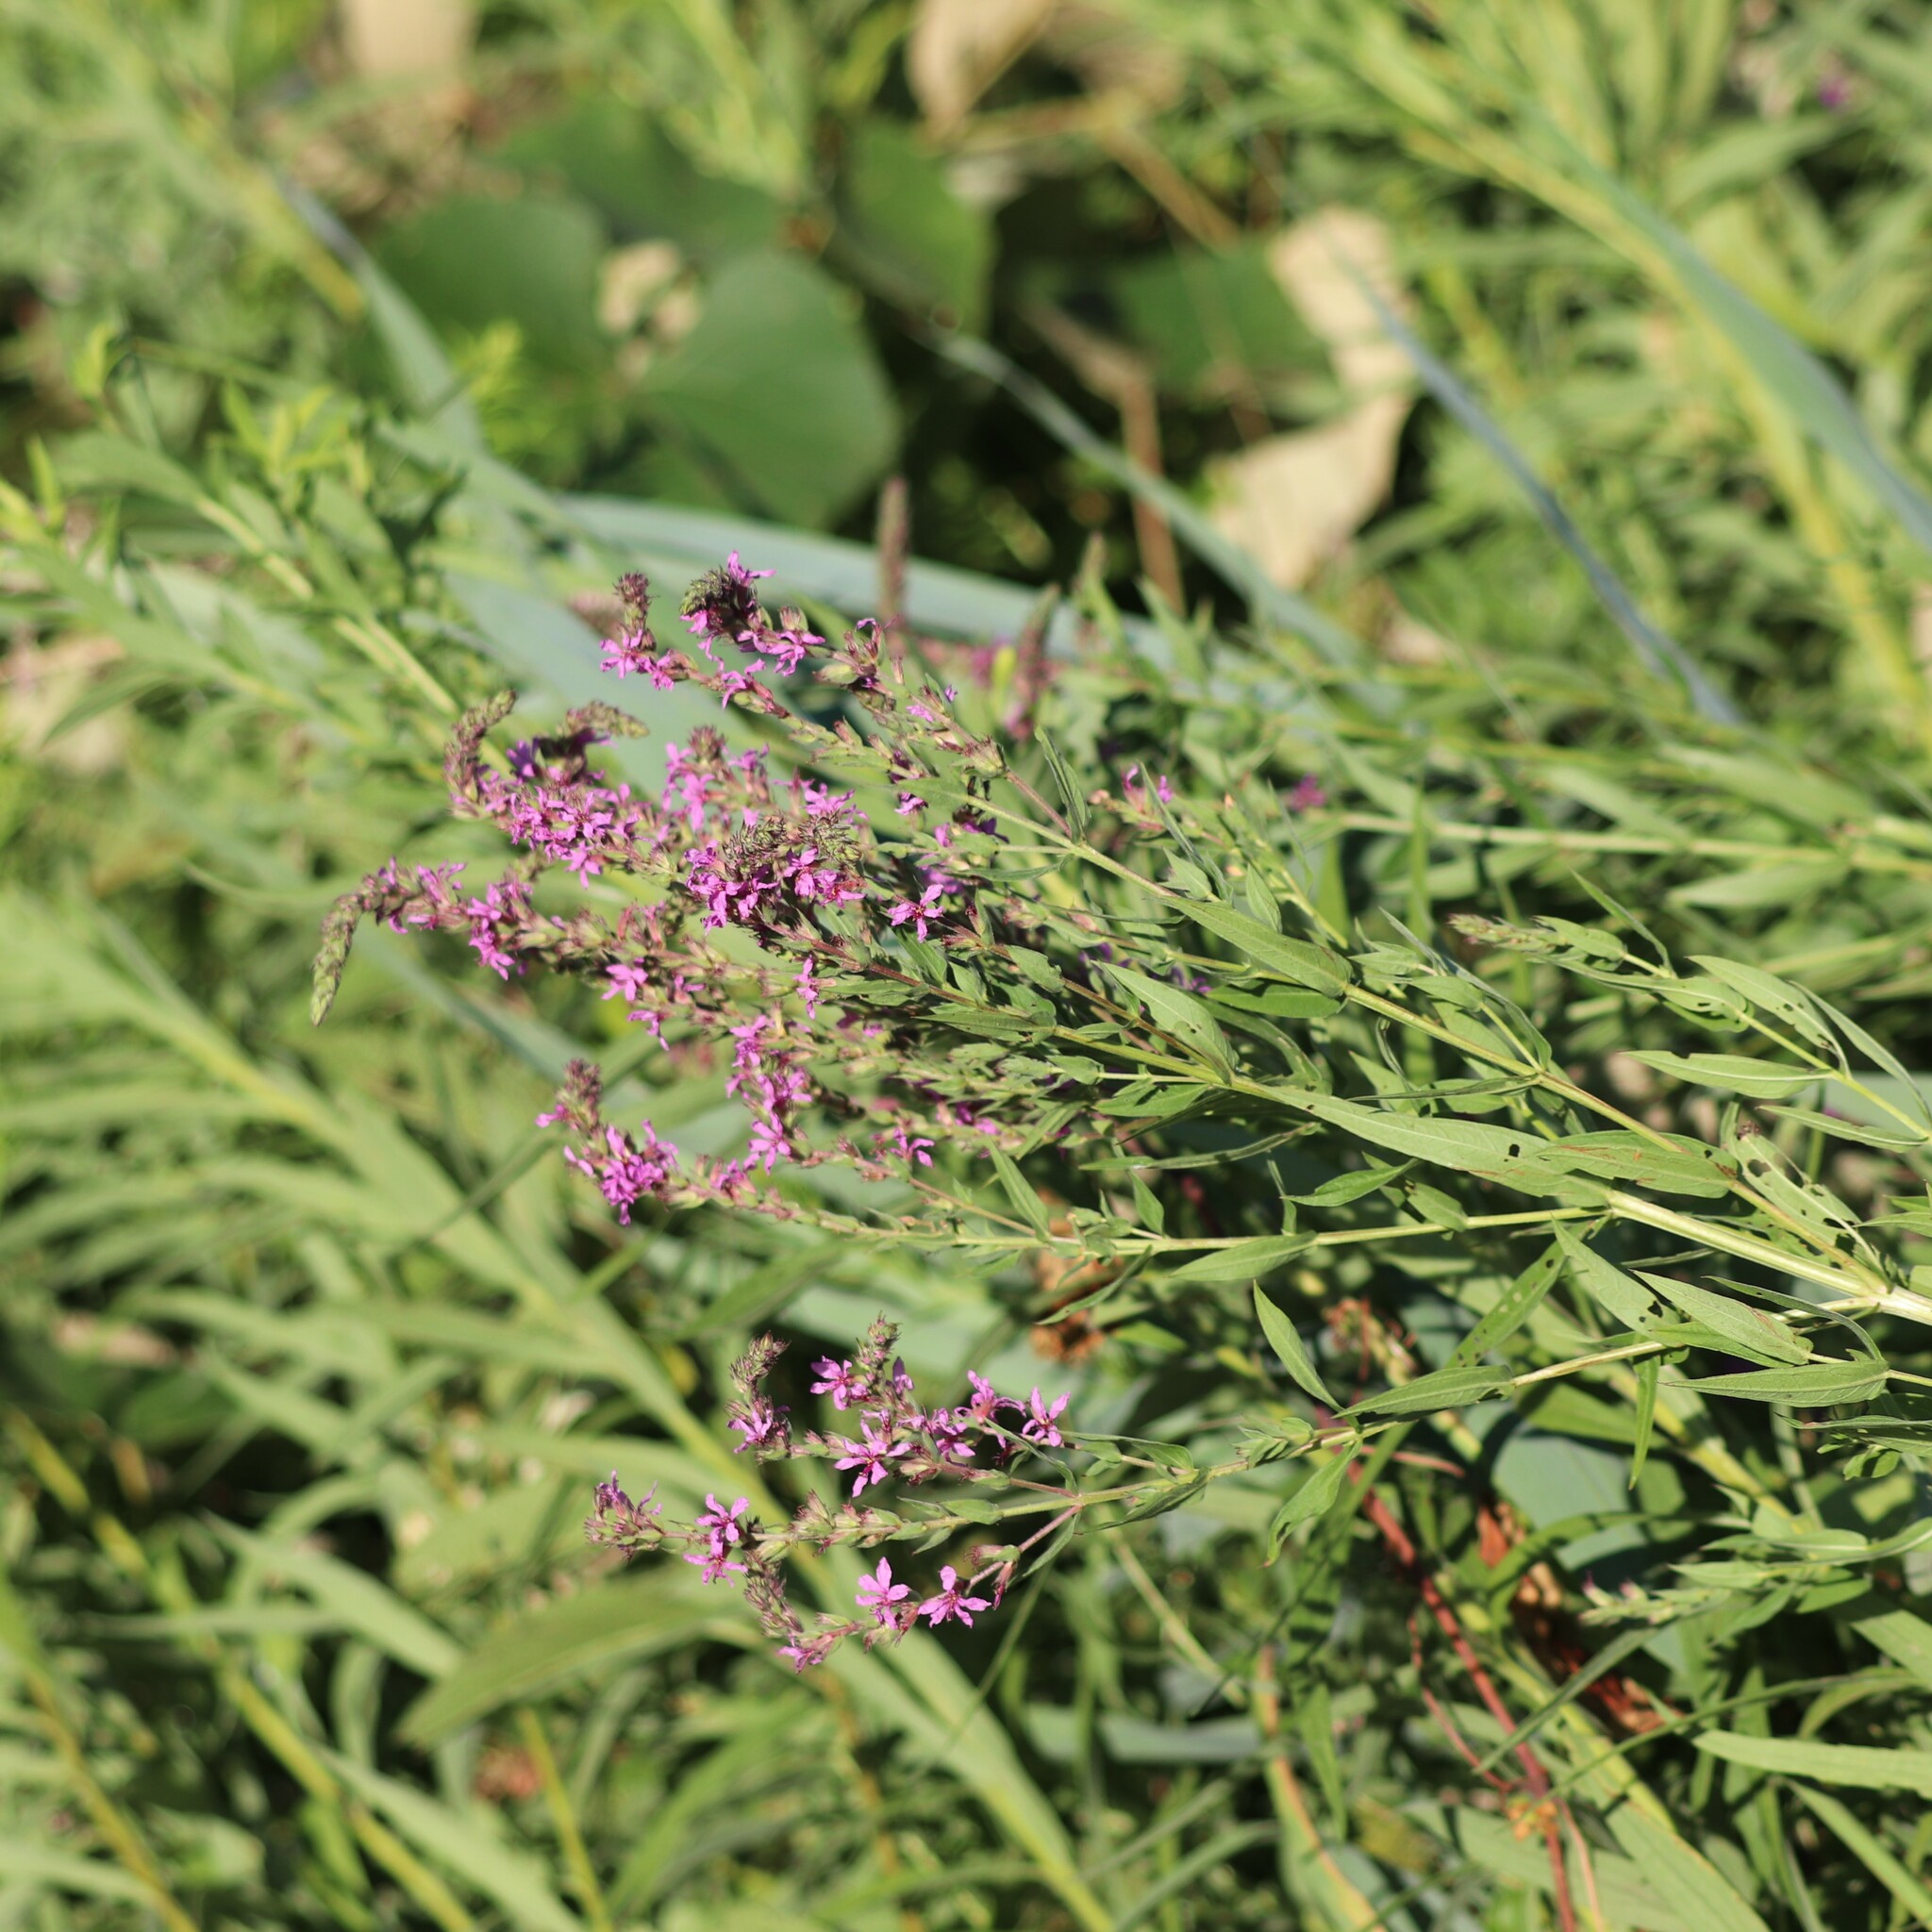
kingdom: Plantae
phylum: Tracheophyta
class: Magnoliopsida
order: Myrtales
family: Lythraceae
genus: Lythrum
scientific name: Lythrum salicaria
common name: Purple loosestrife
